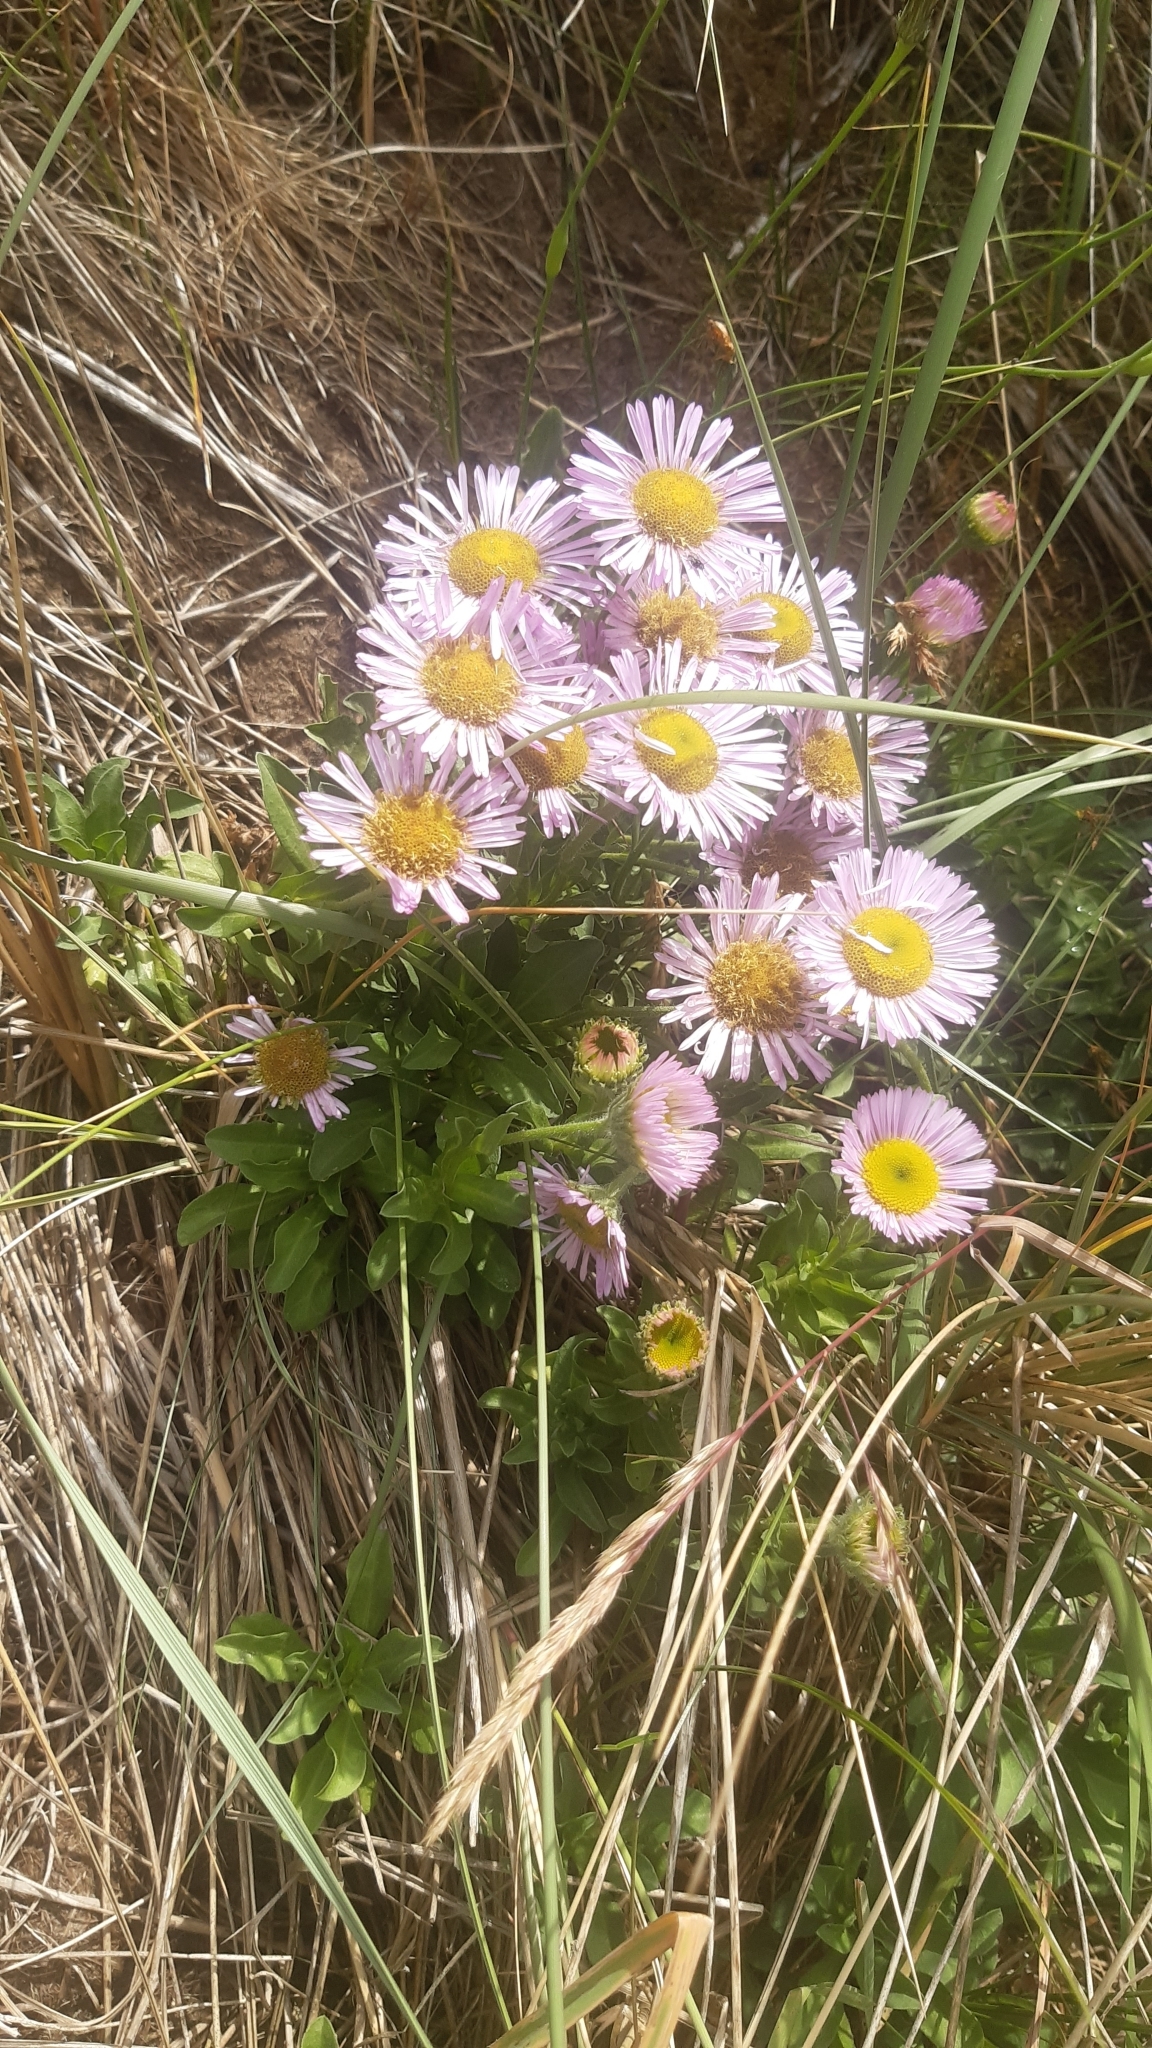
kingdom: Plantae
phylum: Tracheophyta
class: Magnoliopsida
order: Asterales
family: Asteraceae
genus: Erigeron
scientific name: Erigeron glaucus
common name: Seaside daisy
